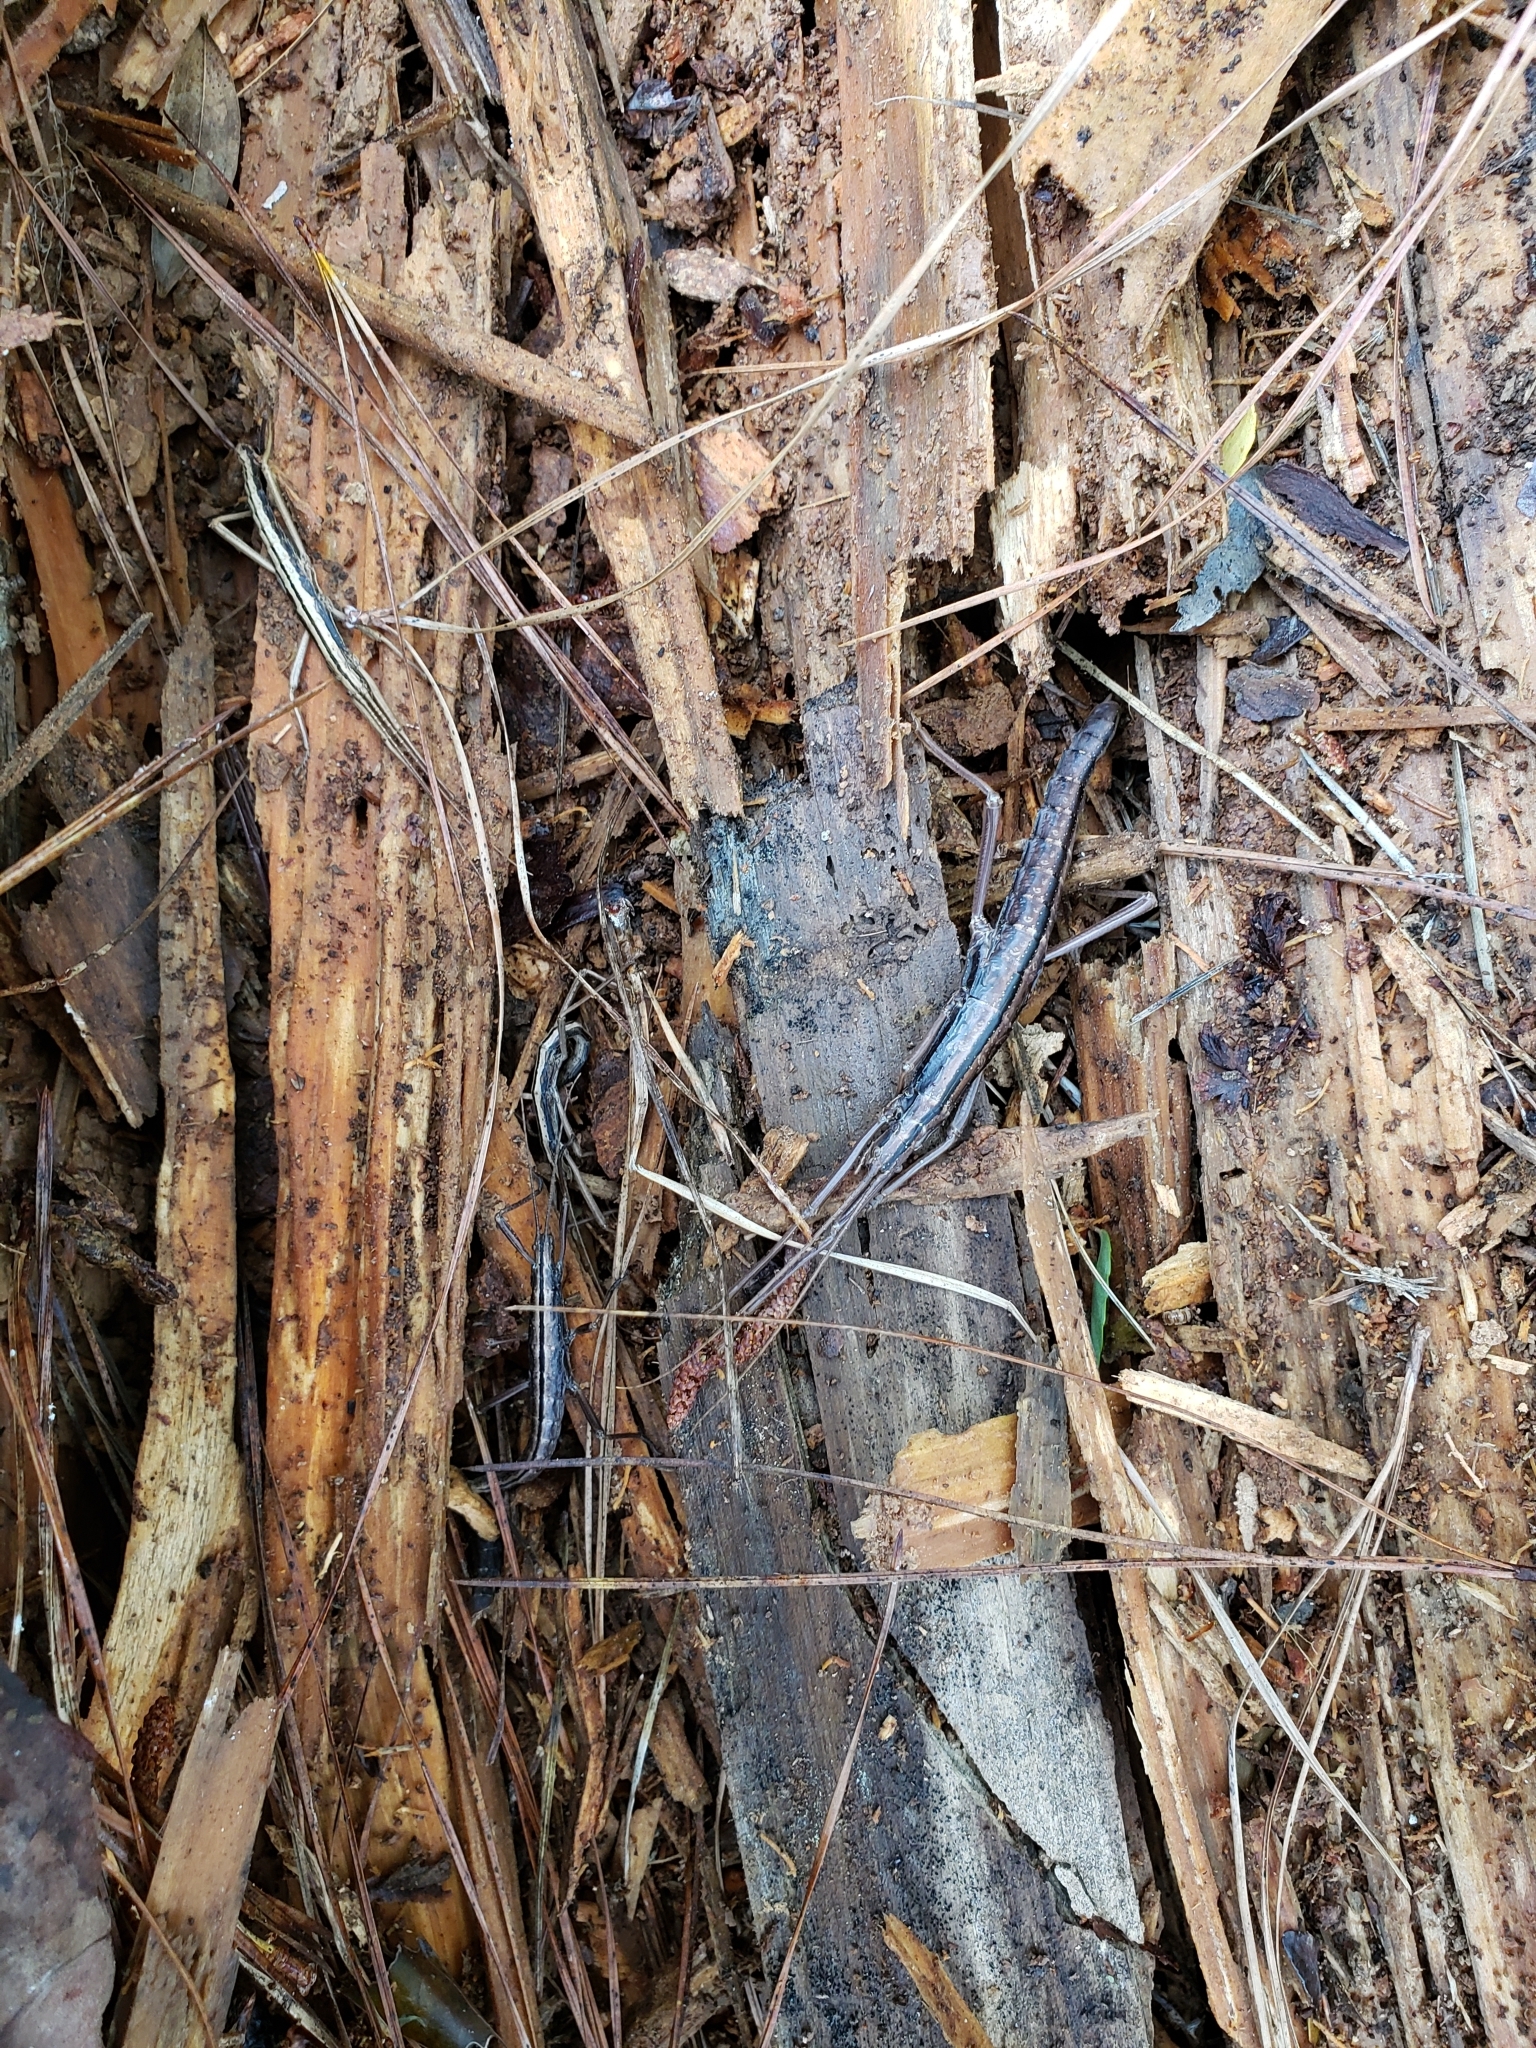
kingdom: Animalia
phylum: Arthropoda
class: Insecta
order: Phasmida
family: Pseudophasmatidae
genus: Anisomorpha
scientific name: Anisomorpha buprestoides
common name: Florida stick insect
